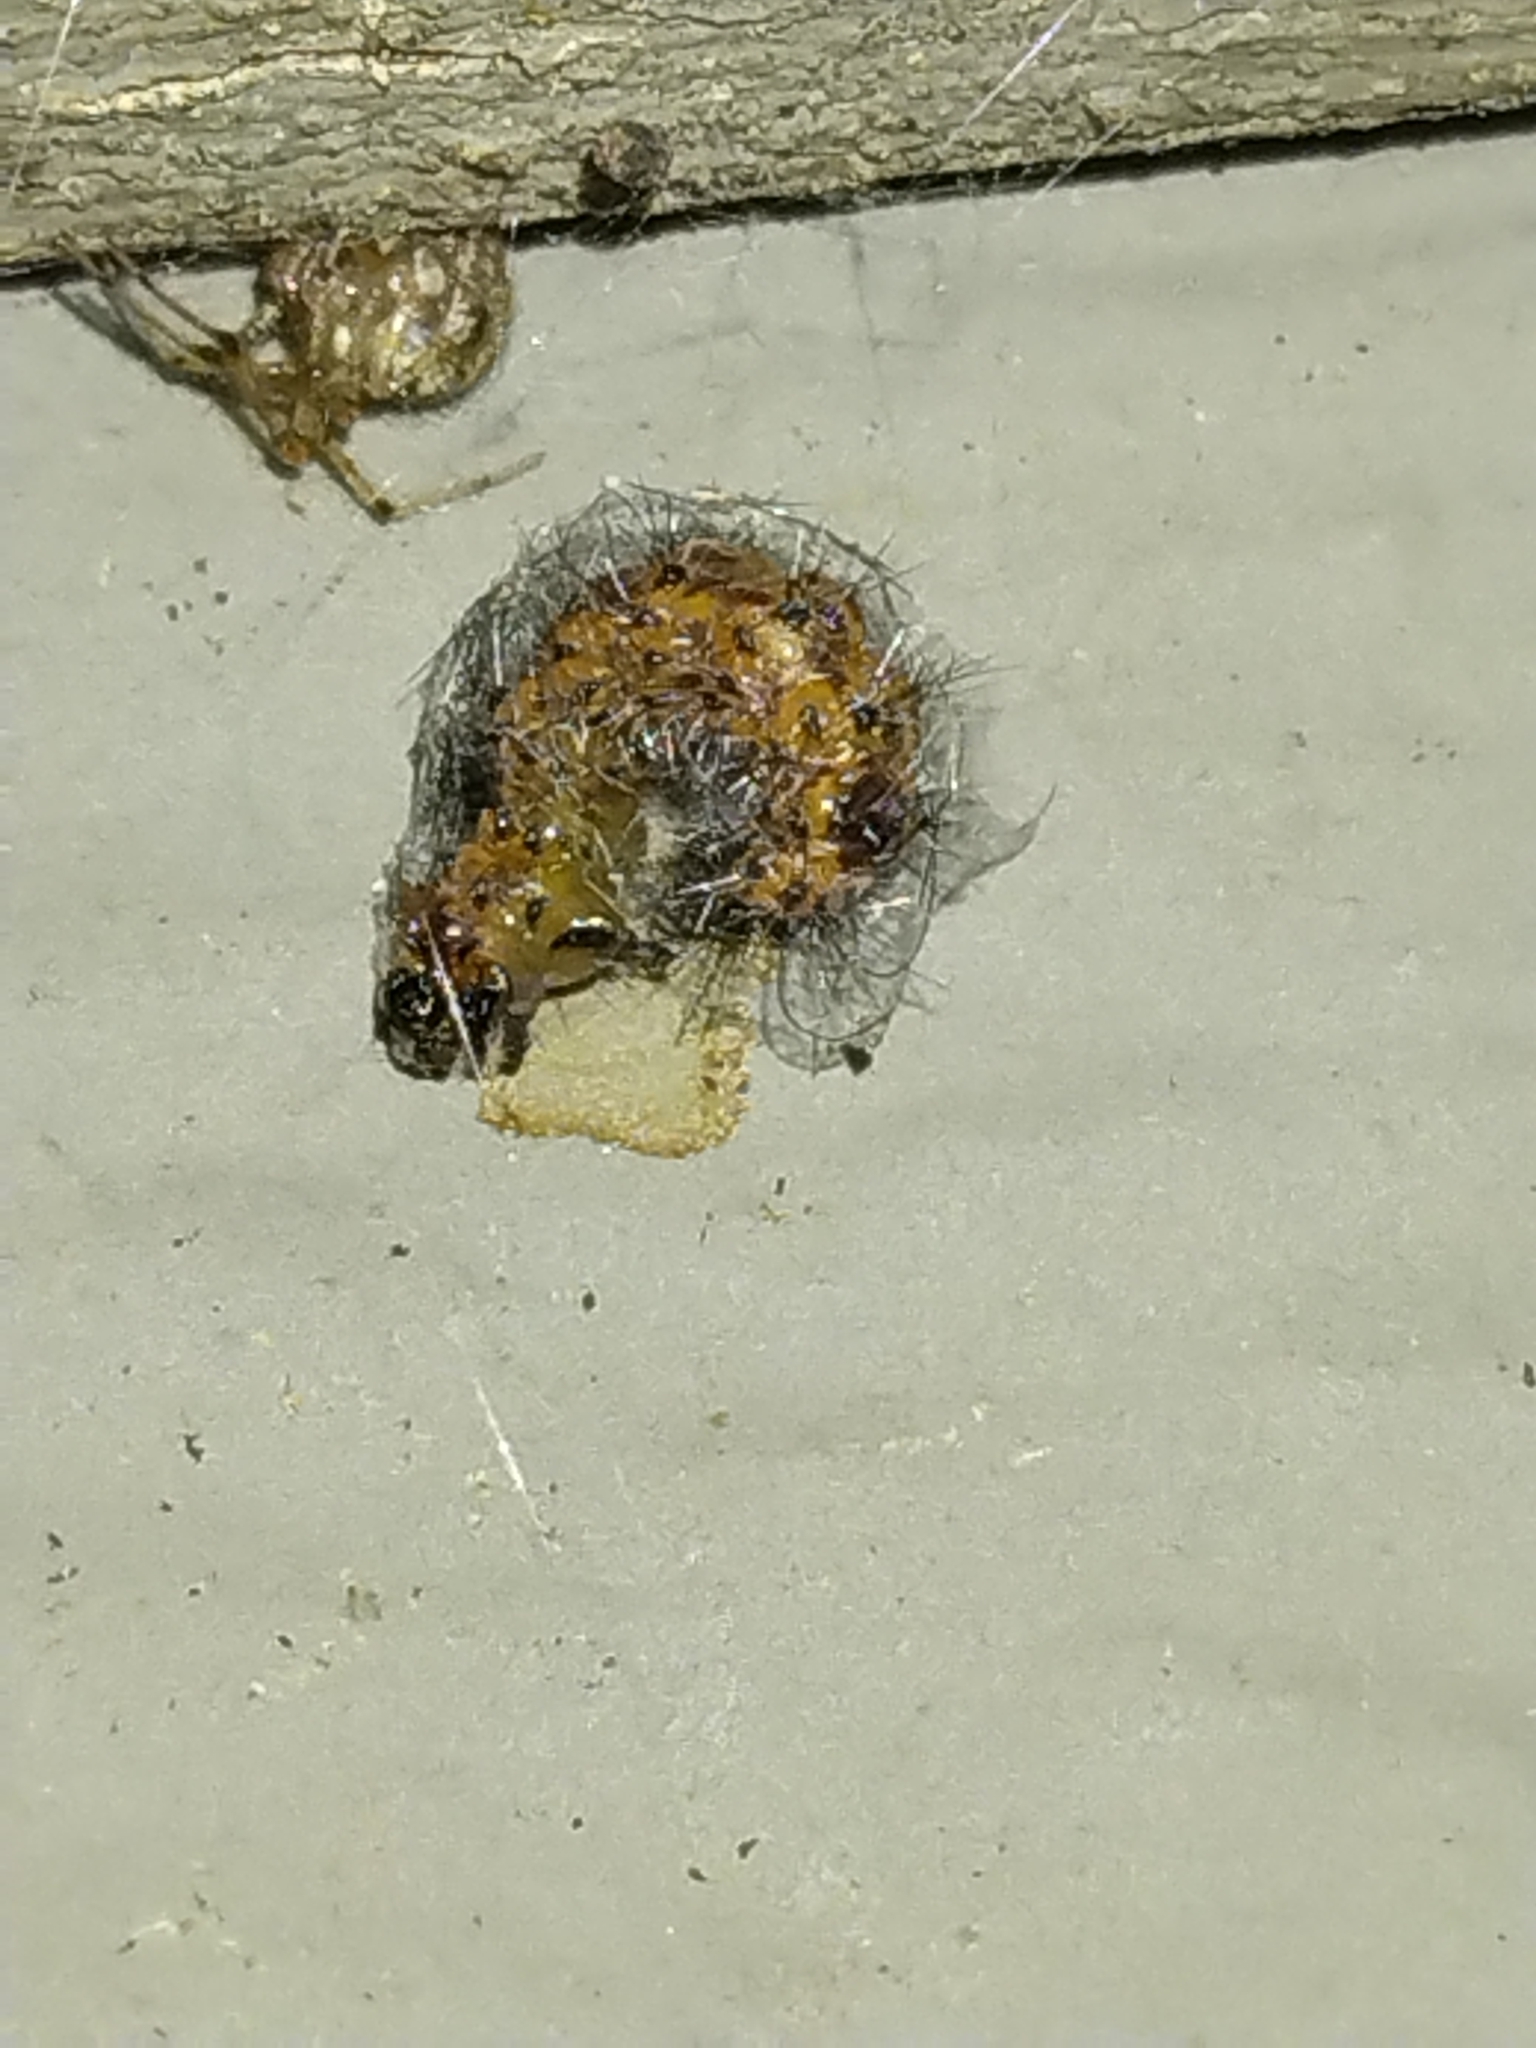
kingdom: Animalia
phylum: Arthropoda
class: Insecta
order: Lepidoptera
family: Erebidae
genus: Spilosoma
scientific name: Spilosoma dubia
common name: Dubious tiger moth
